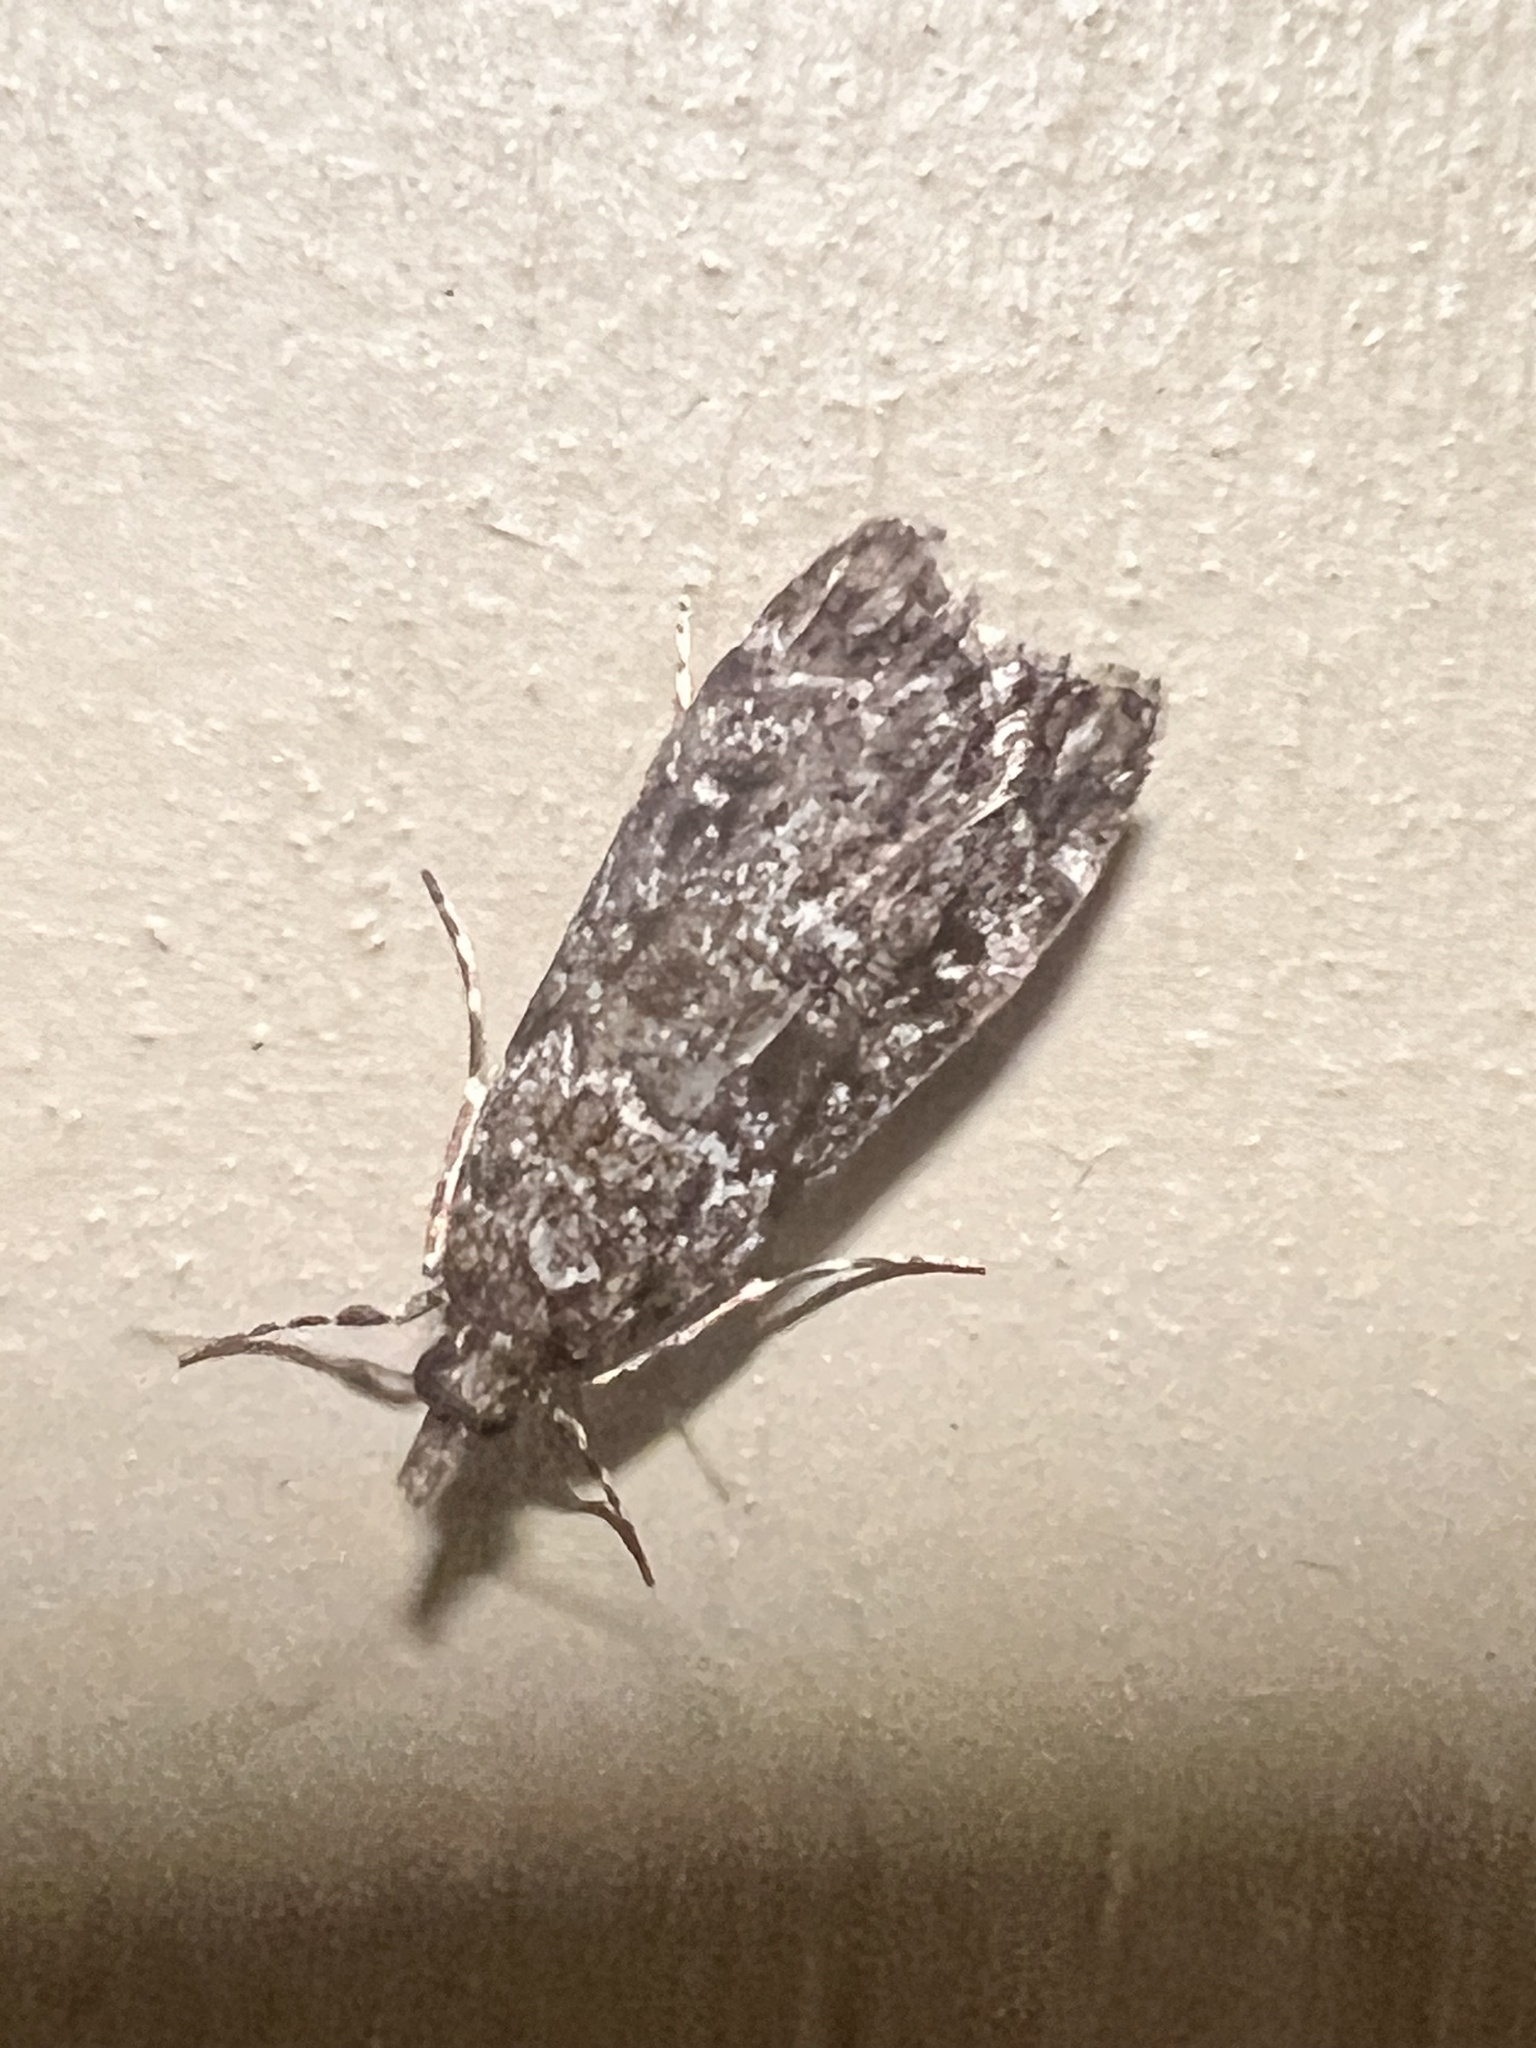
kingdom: Animalia
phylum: Arthropoda
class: Insecta
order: Lepidoptera
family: Crambidae
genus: Eudonia
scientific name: Eudonia philerga
